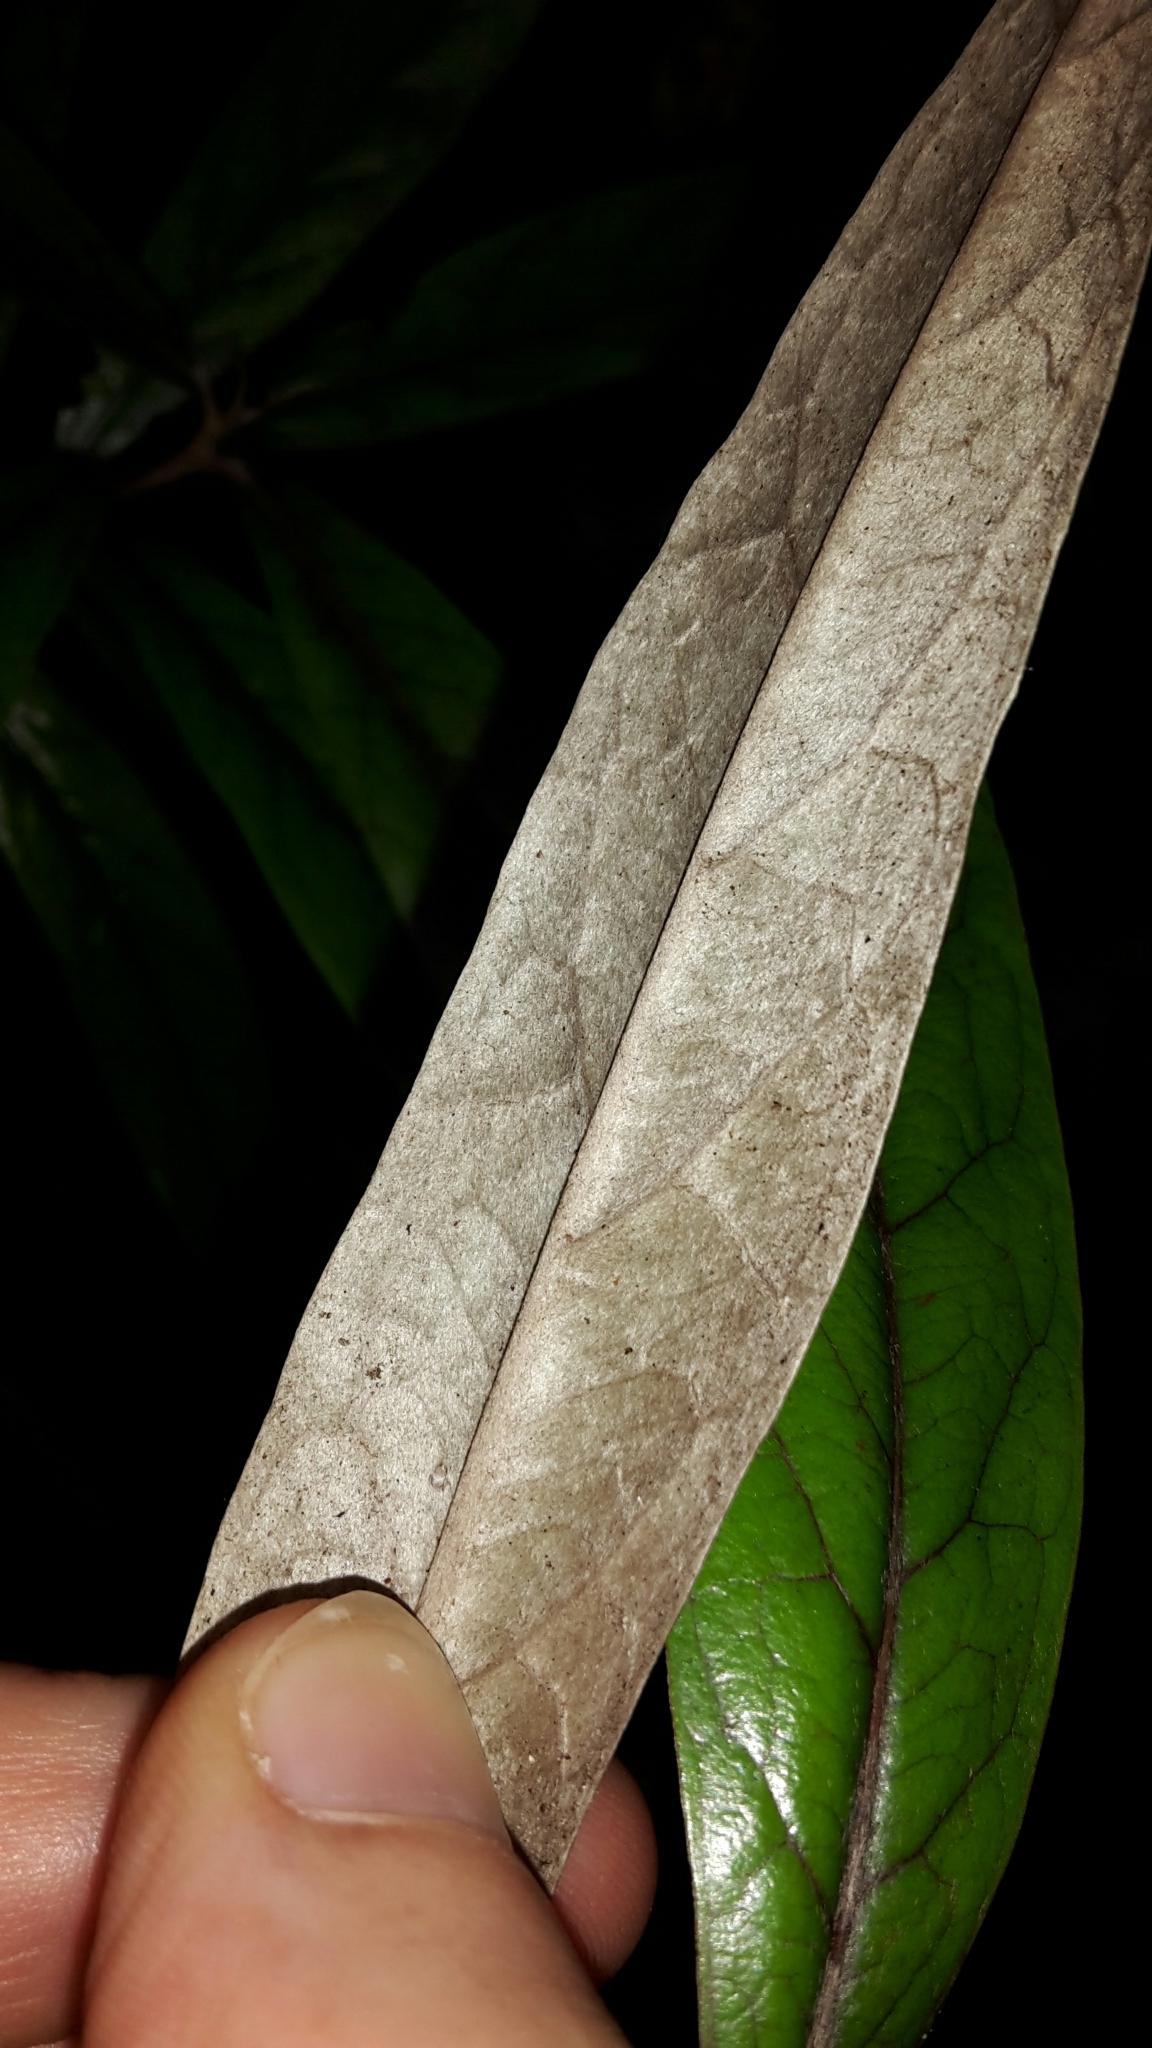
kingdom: Plantae
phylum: Tracheophyta
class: Magnoliopsida
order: Asterales
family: Argophyllaceae
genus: Corokia
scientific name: Corokia buddleioides
